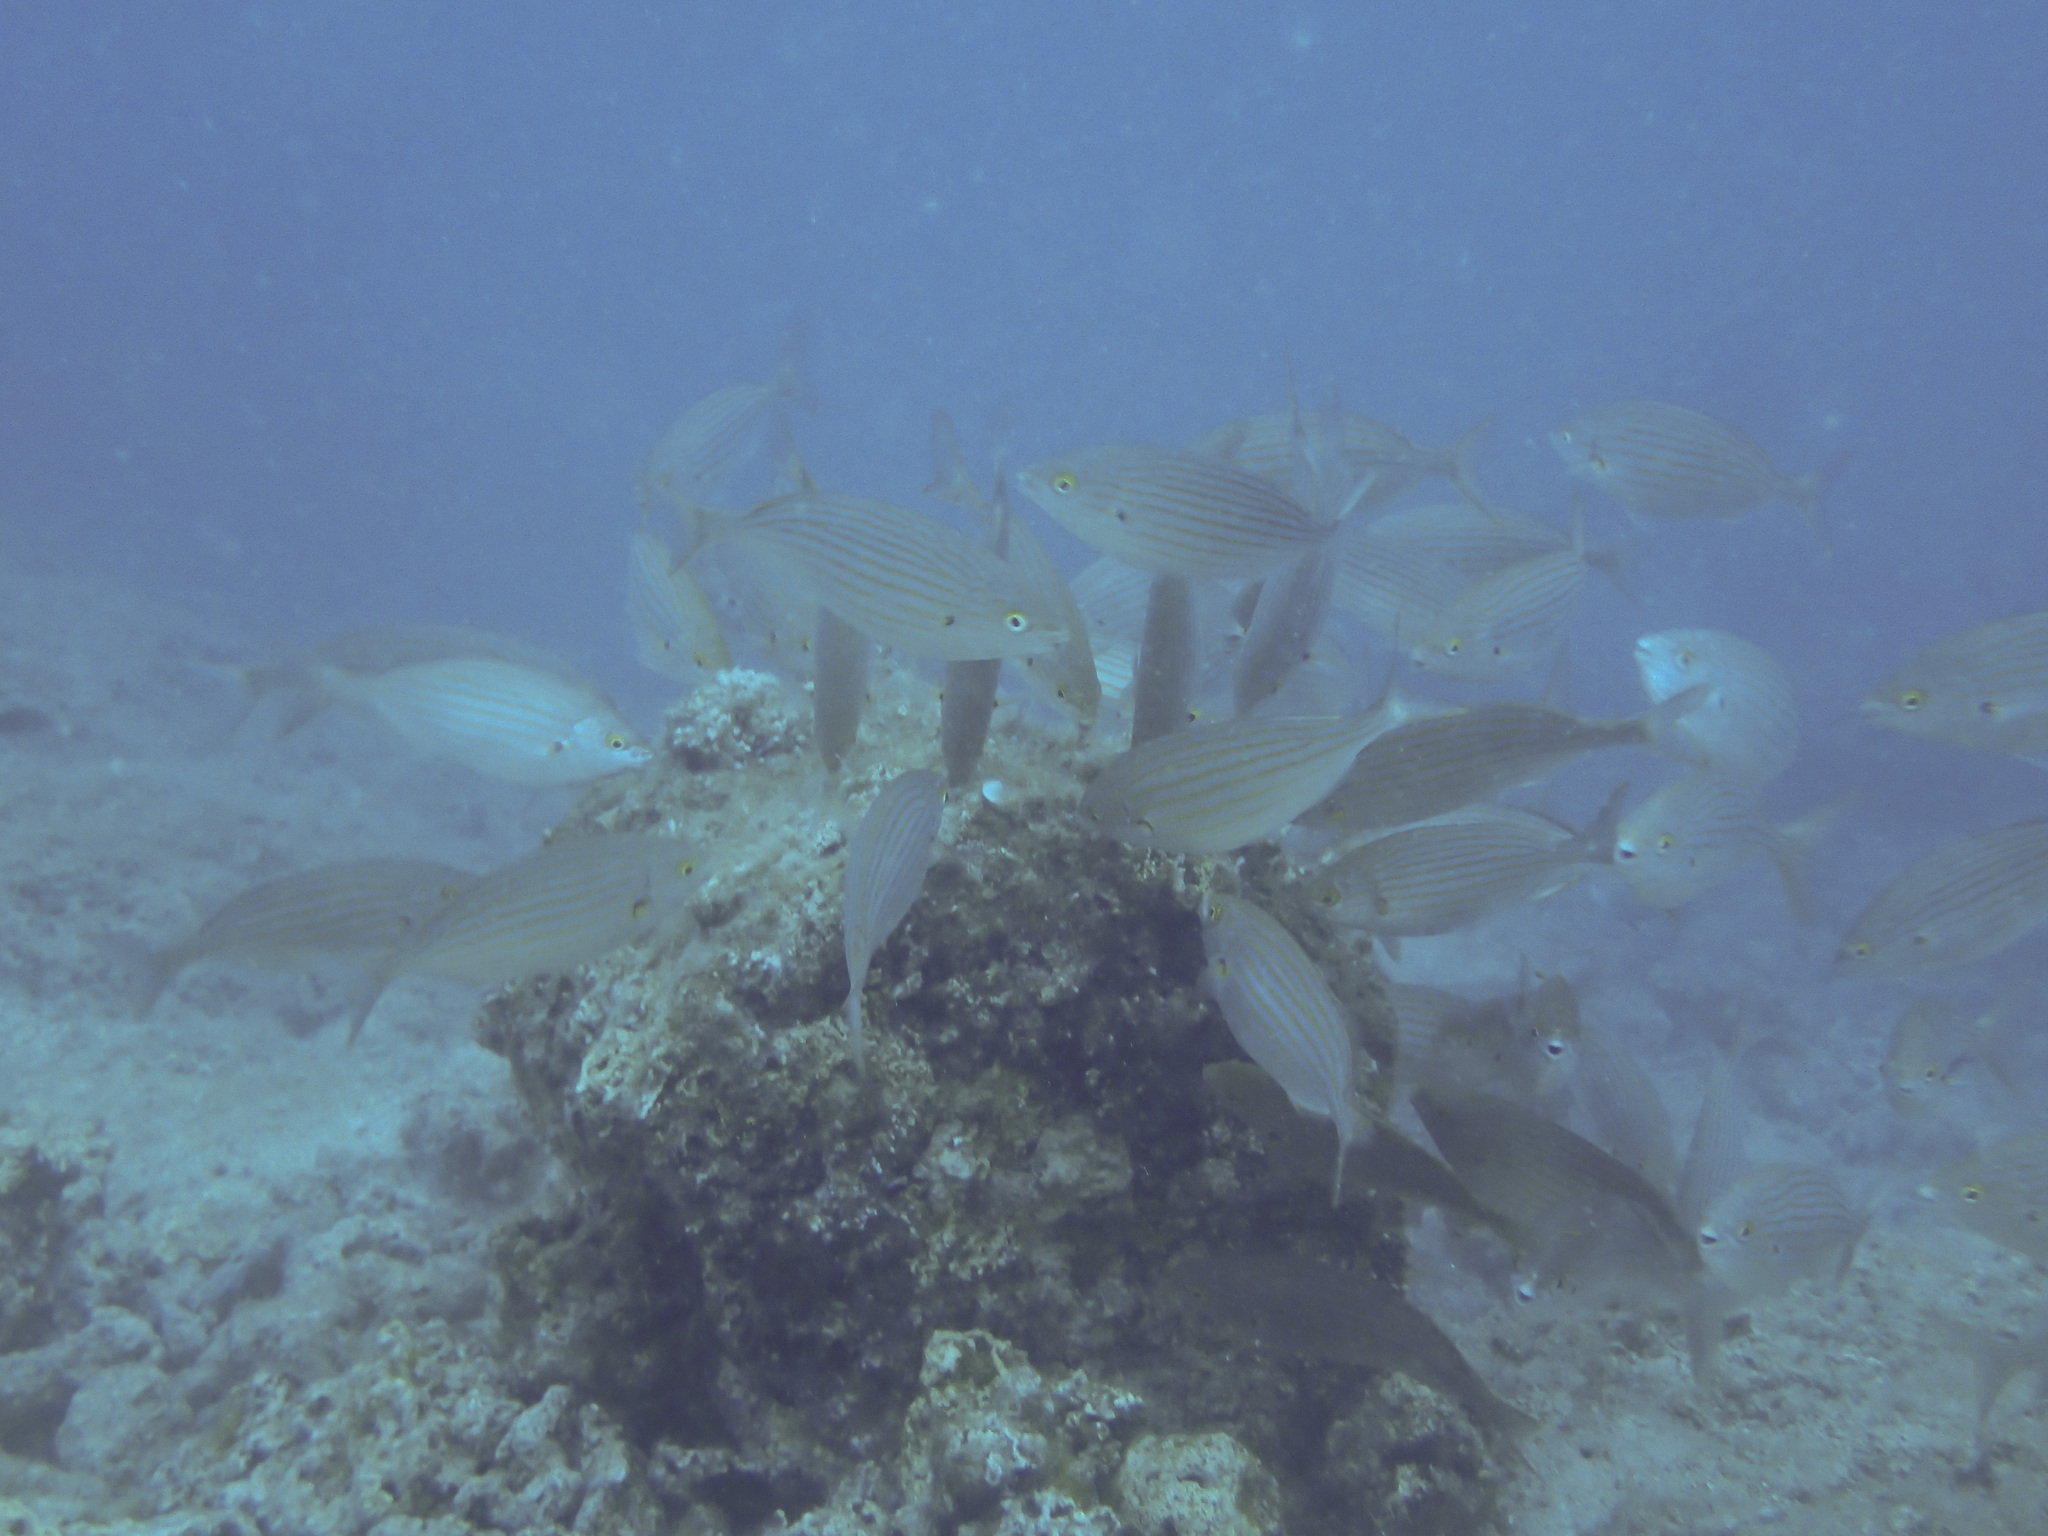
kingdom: Animalia
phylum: Chordata
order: Perciformes
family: Sparidae
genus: Sarpa
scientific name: Sarpa salpa
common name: Salema
